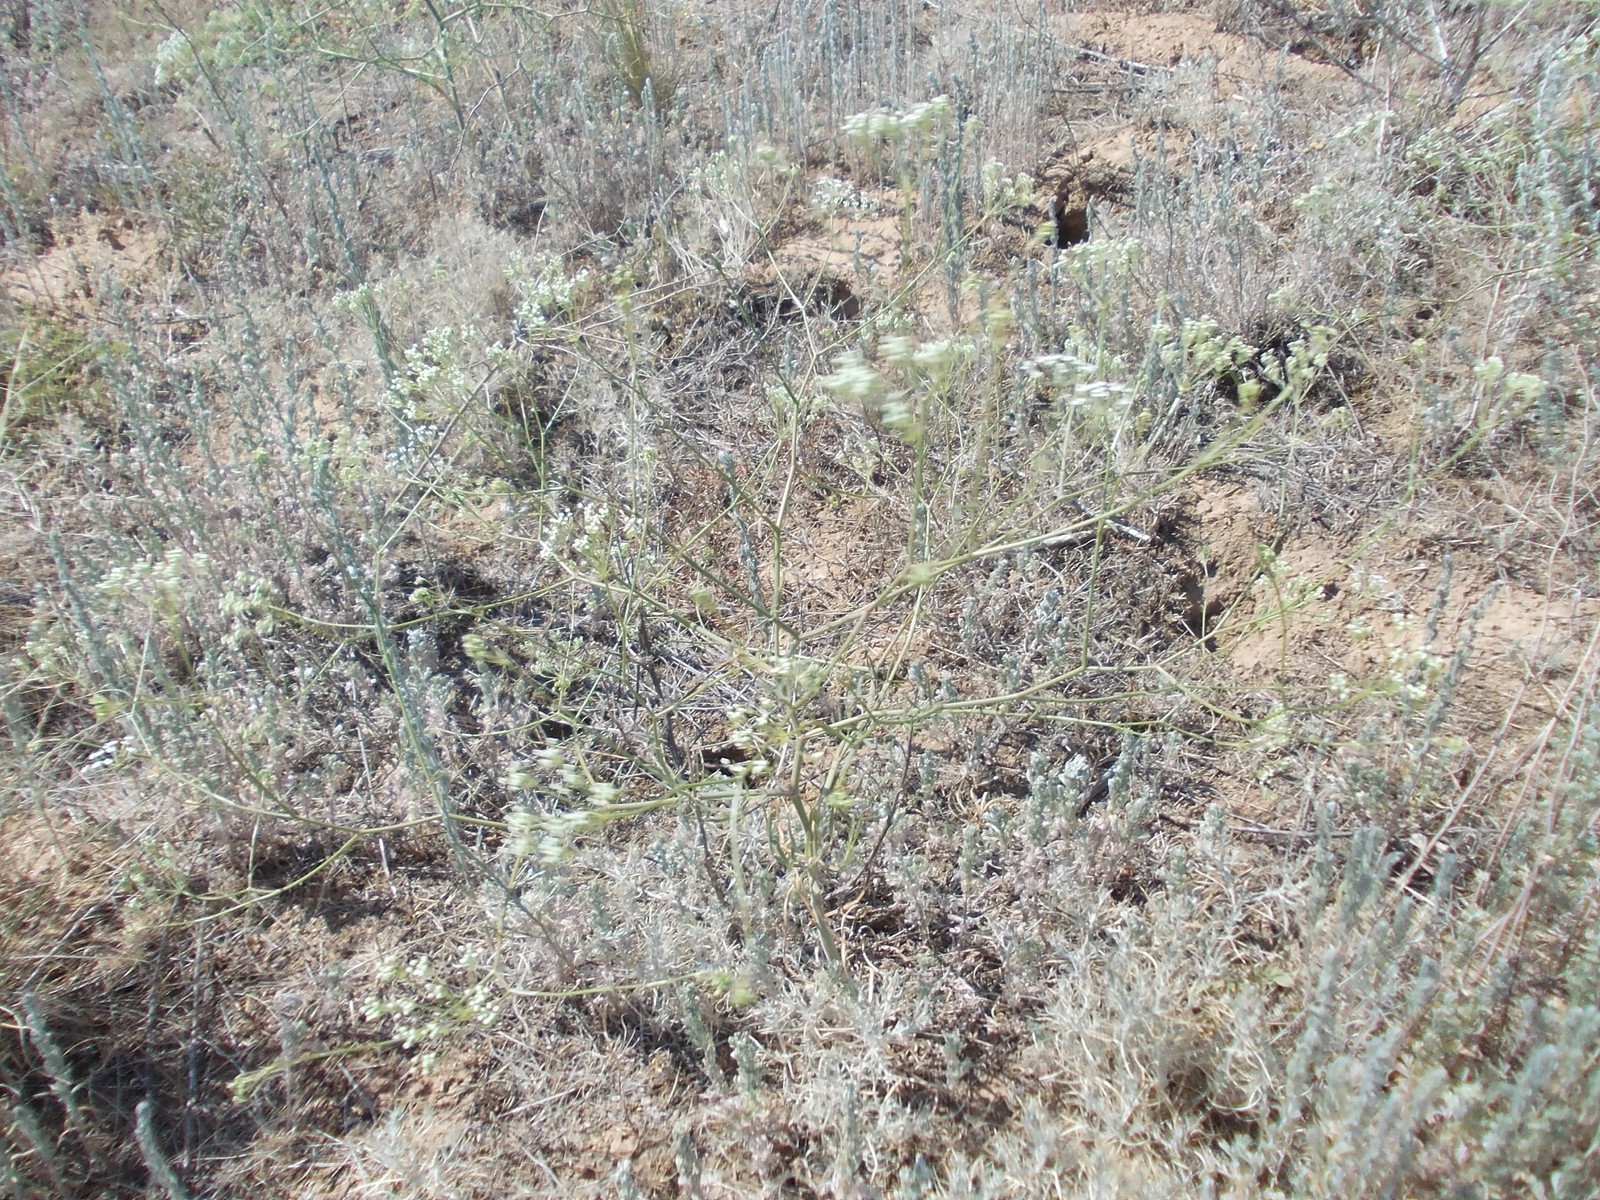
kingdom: Plantae
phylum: Tracheophyta
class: Magnoliopsida
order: Apiales
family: Apiaceae
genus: Falcaria
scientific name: Falcaria vulgaris
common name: Longleaf
